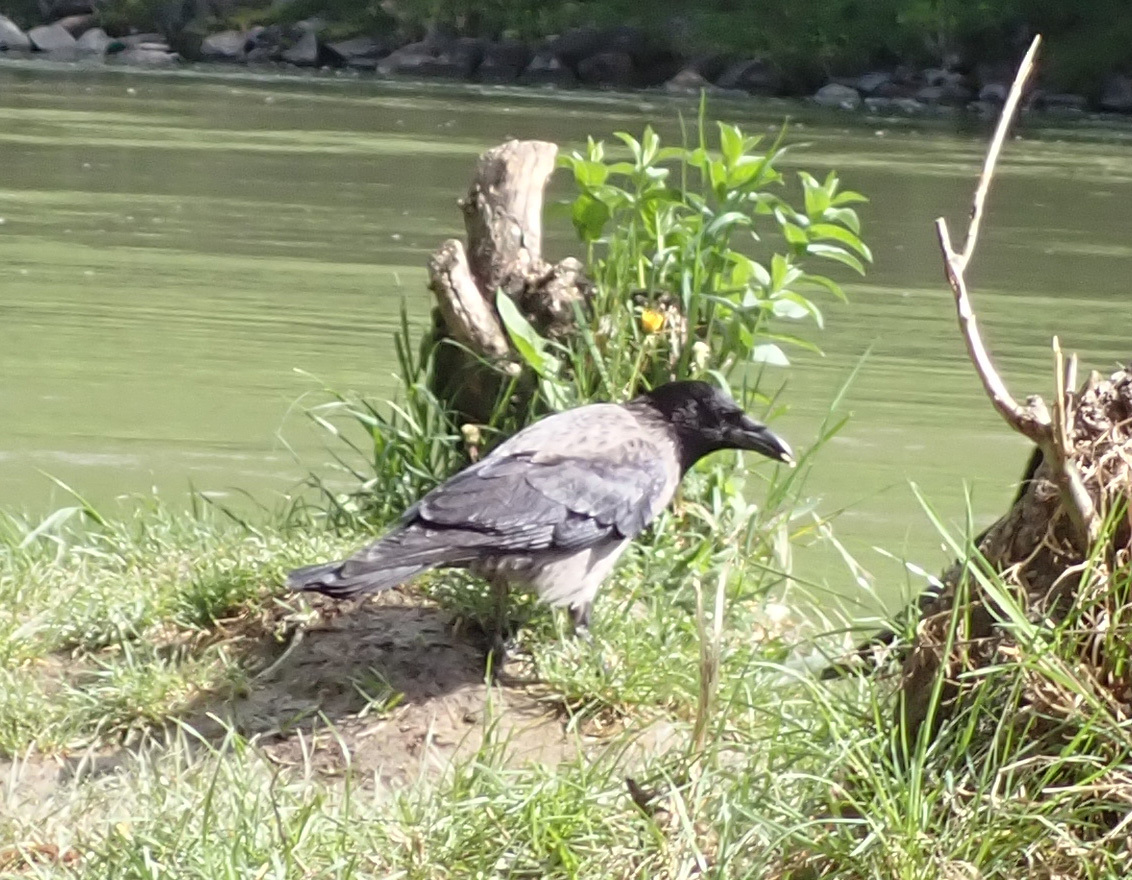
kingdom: Animalia
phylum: Chordata
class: Aves
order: Passeriformes
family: Corvidae
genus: Corvus
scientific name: Corvus cornix
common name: Hooded crow
